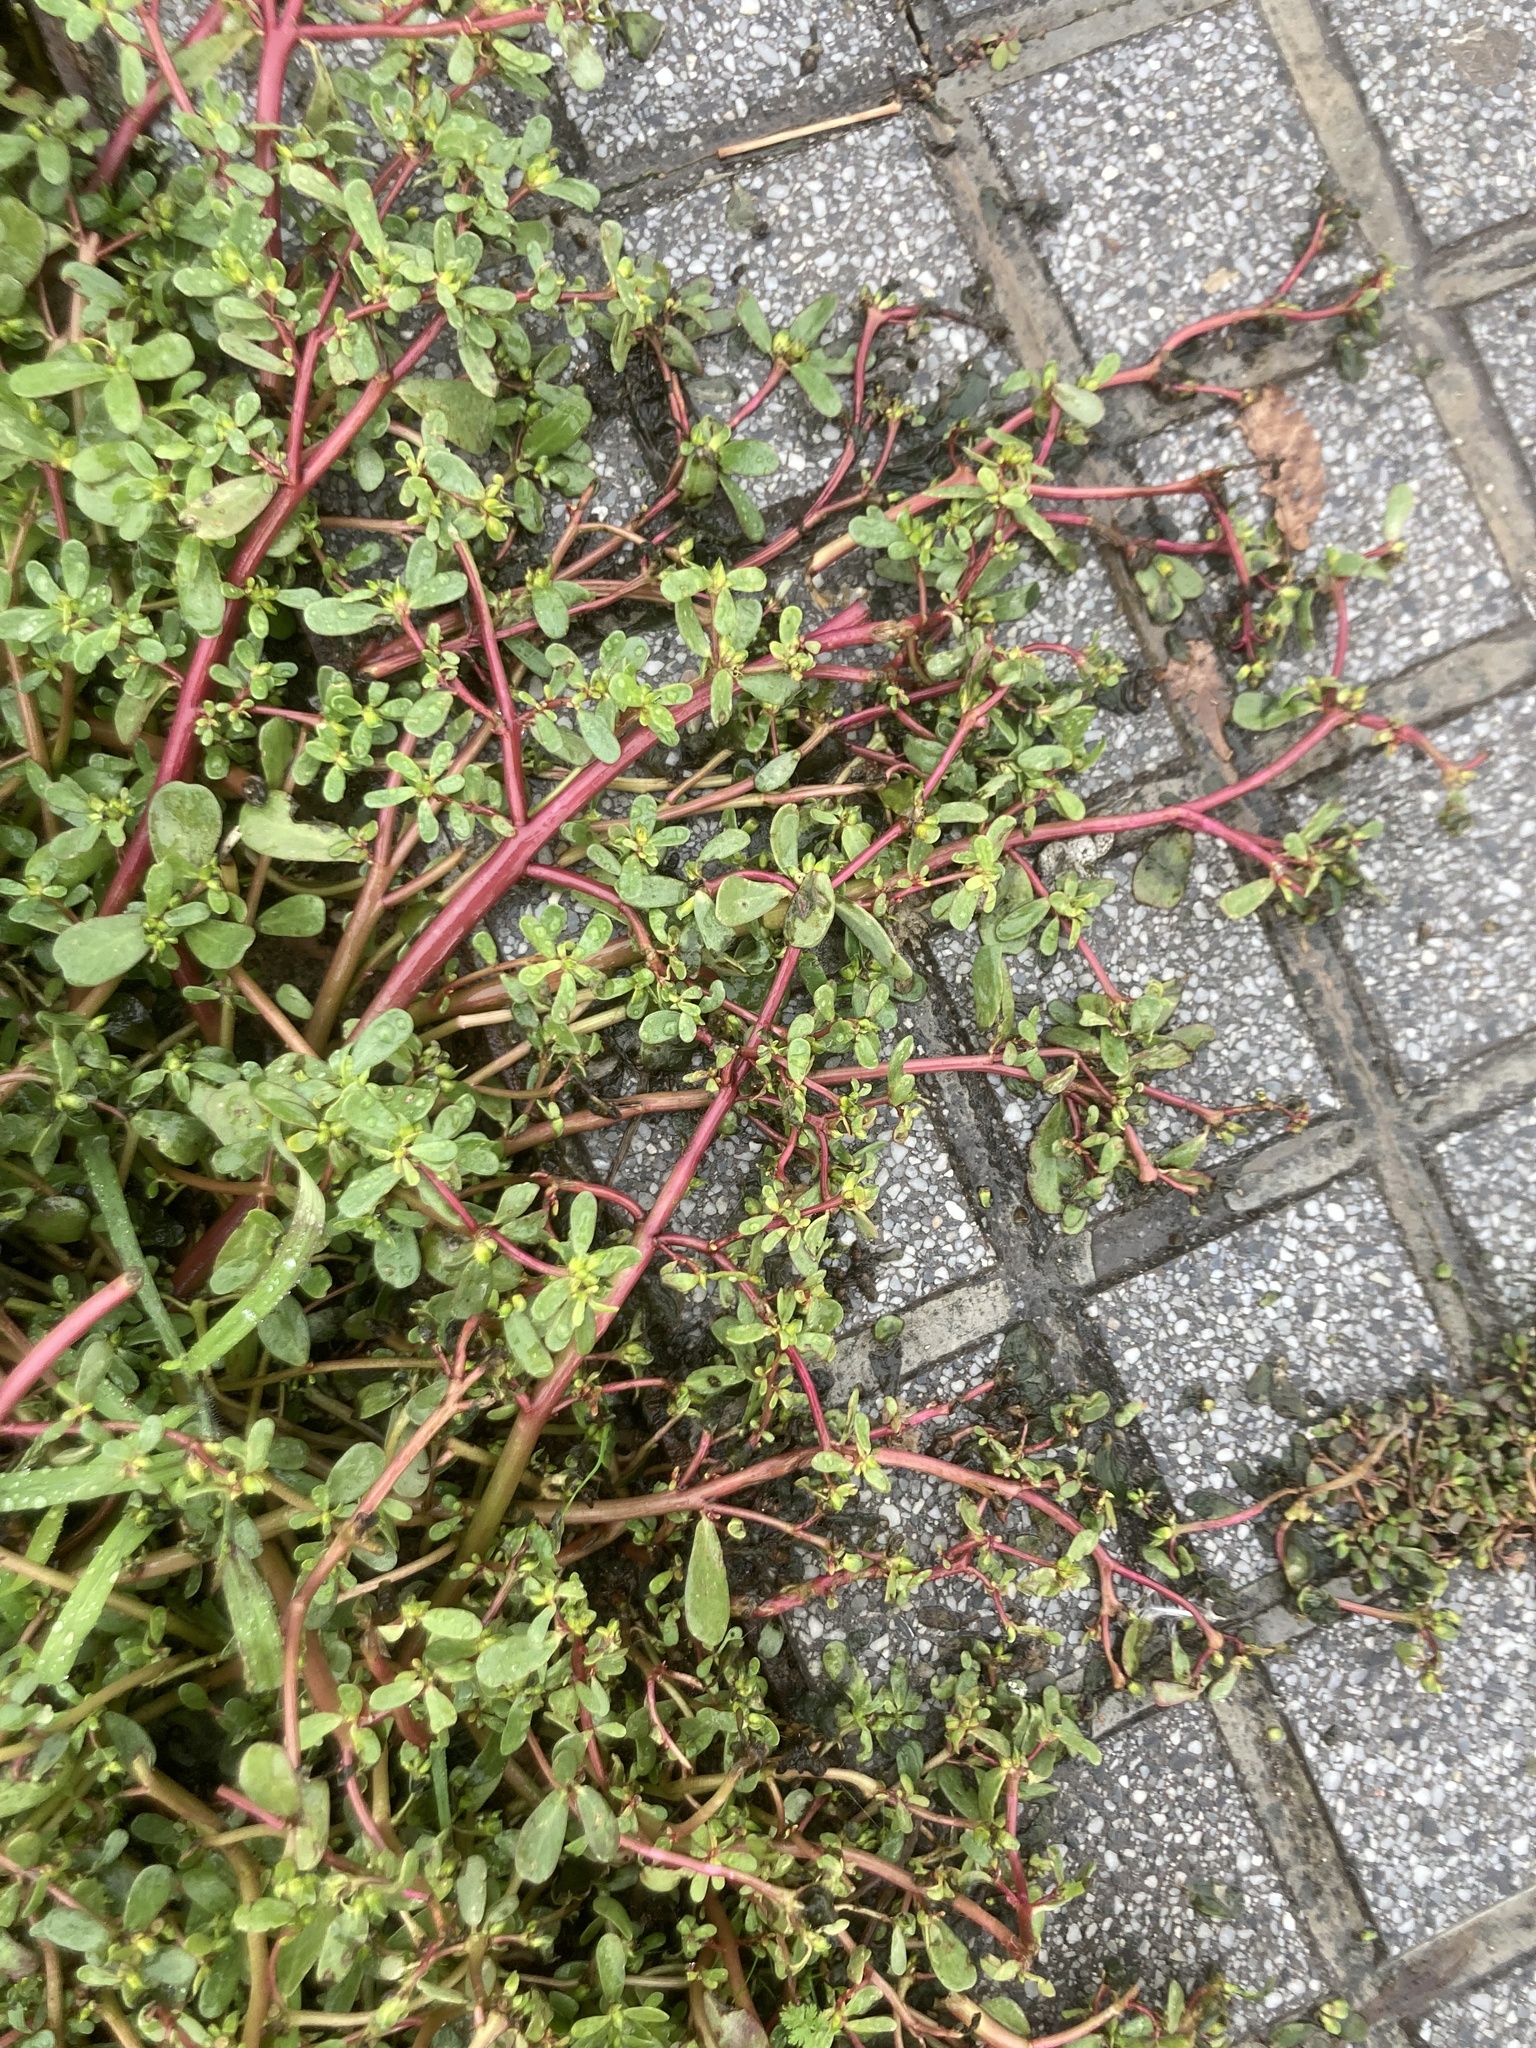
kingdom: Plantae
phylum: Tracheophyta
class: Magnoliopsida
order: Caryophyllales
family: Portulacaceae
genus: Portulaca
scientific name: Portulaca oleracea
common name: Common purslane
